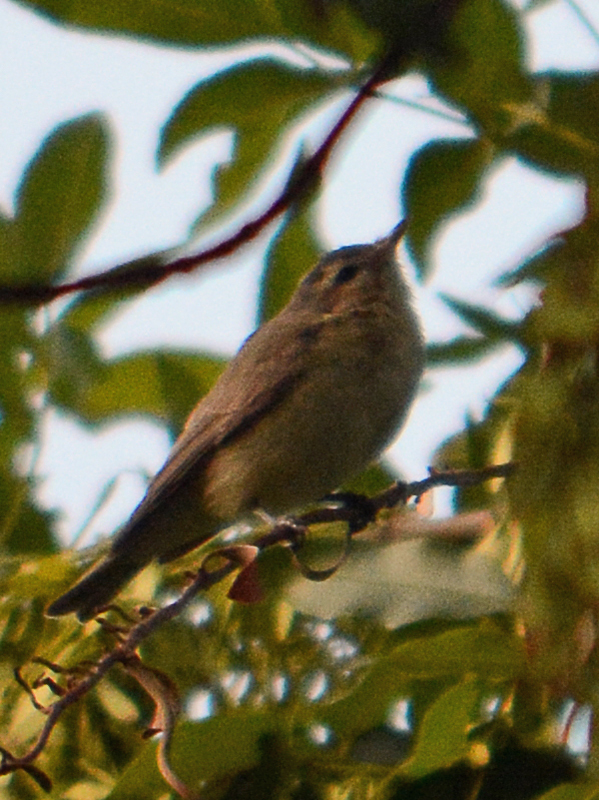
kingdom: Animalia
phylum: Chordata
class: Aves
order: Passeriformes
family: Vireonidae
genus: Vireo
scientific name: Vireo gilvus
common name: Warbling vireo
